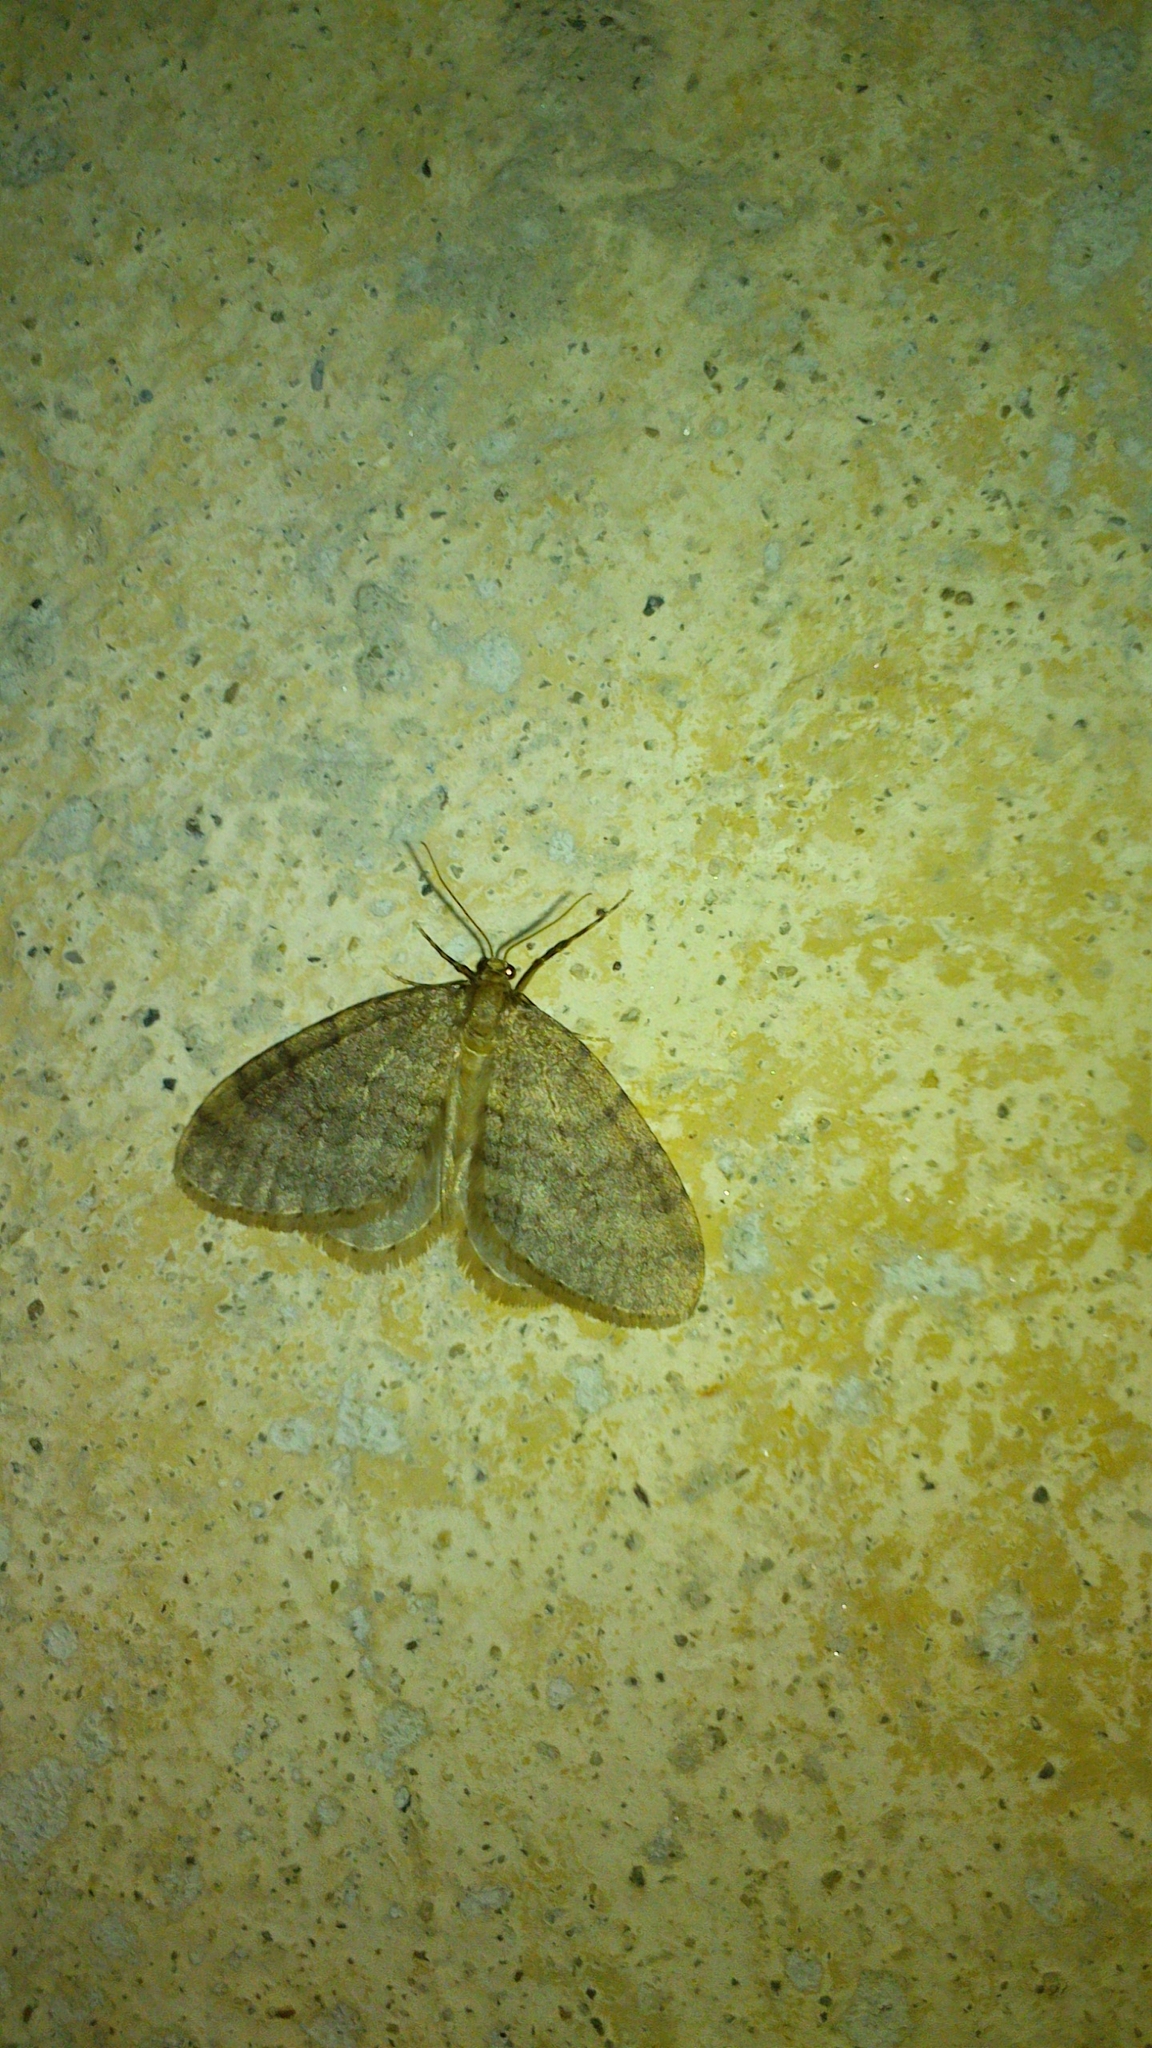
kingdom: Animalia
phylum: Arthropoda
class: Insecta
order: Lepidoptera
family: Geometridae
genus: Operophtera
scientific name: Operophtera brumata
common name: Winter moth
